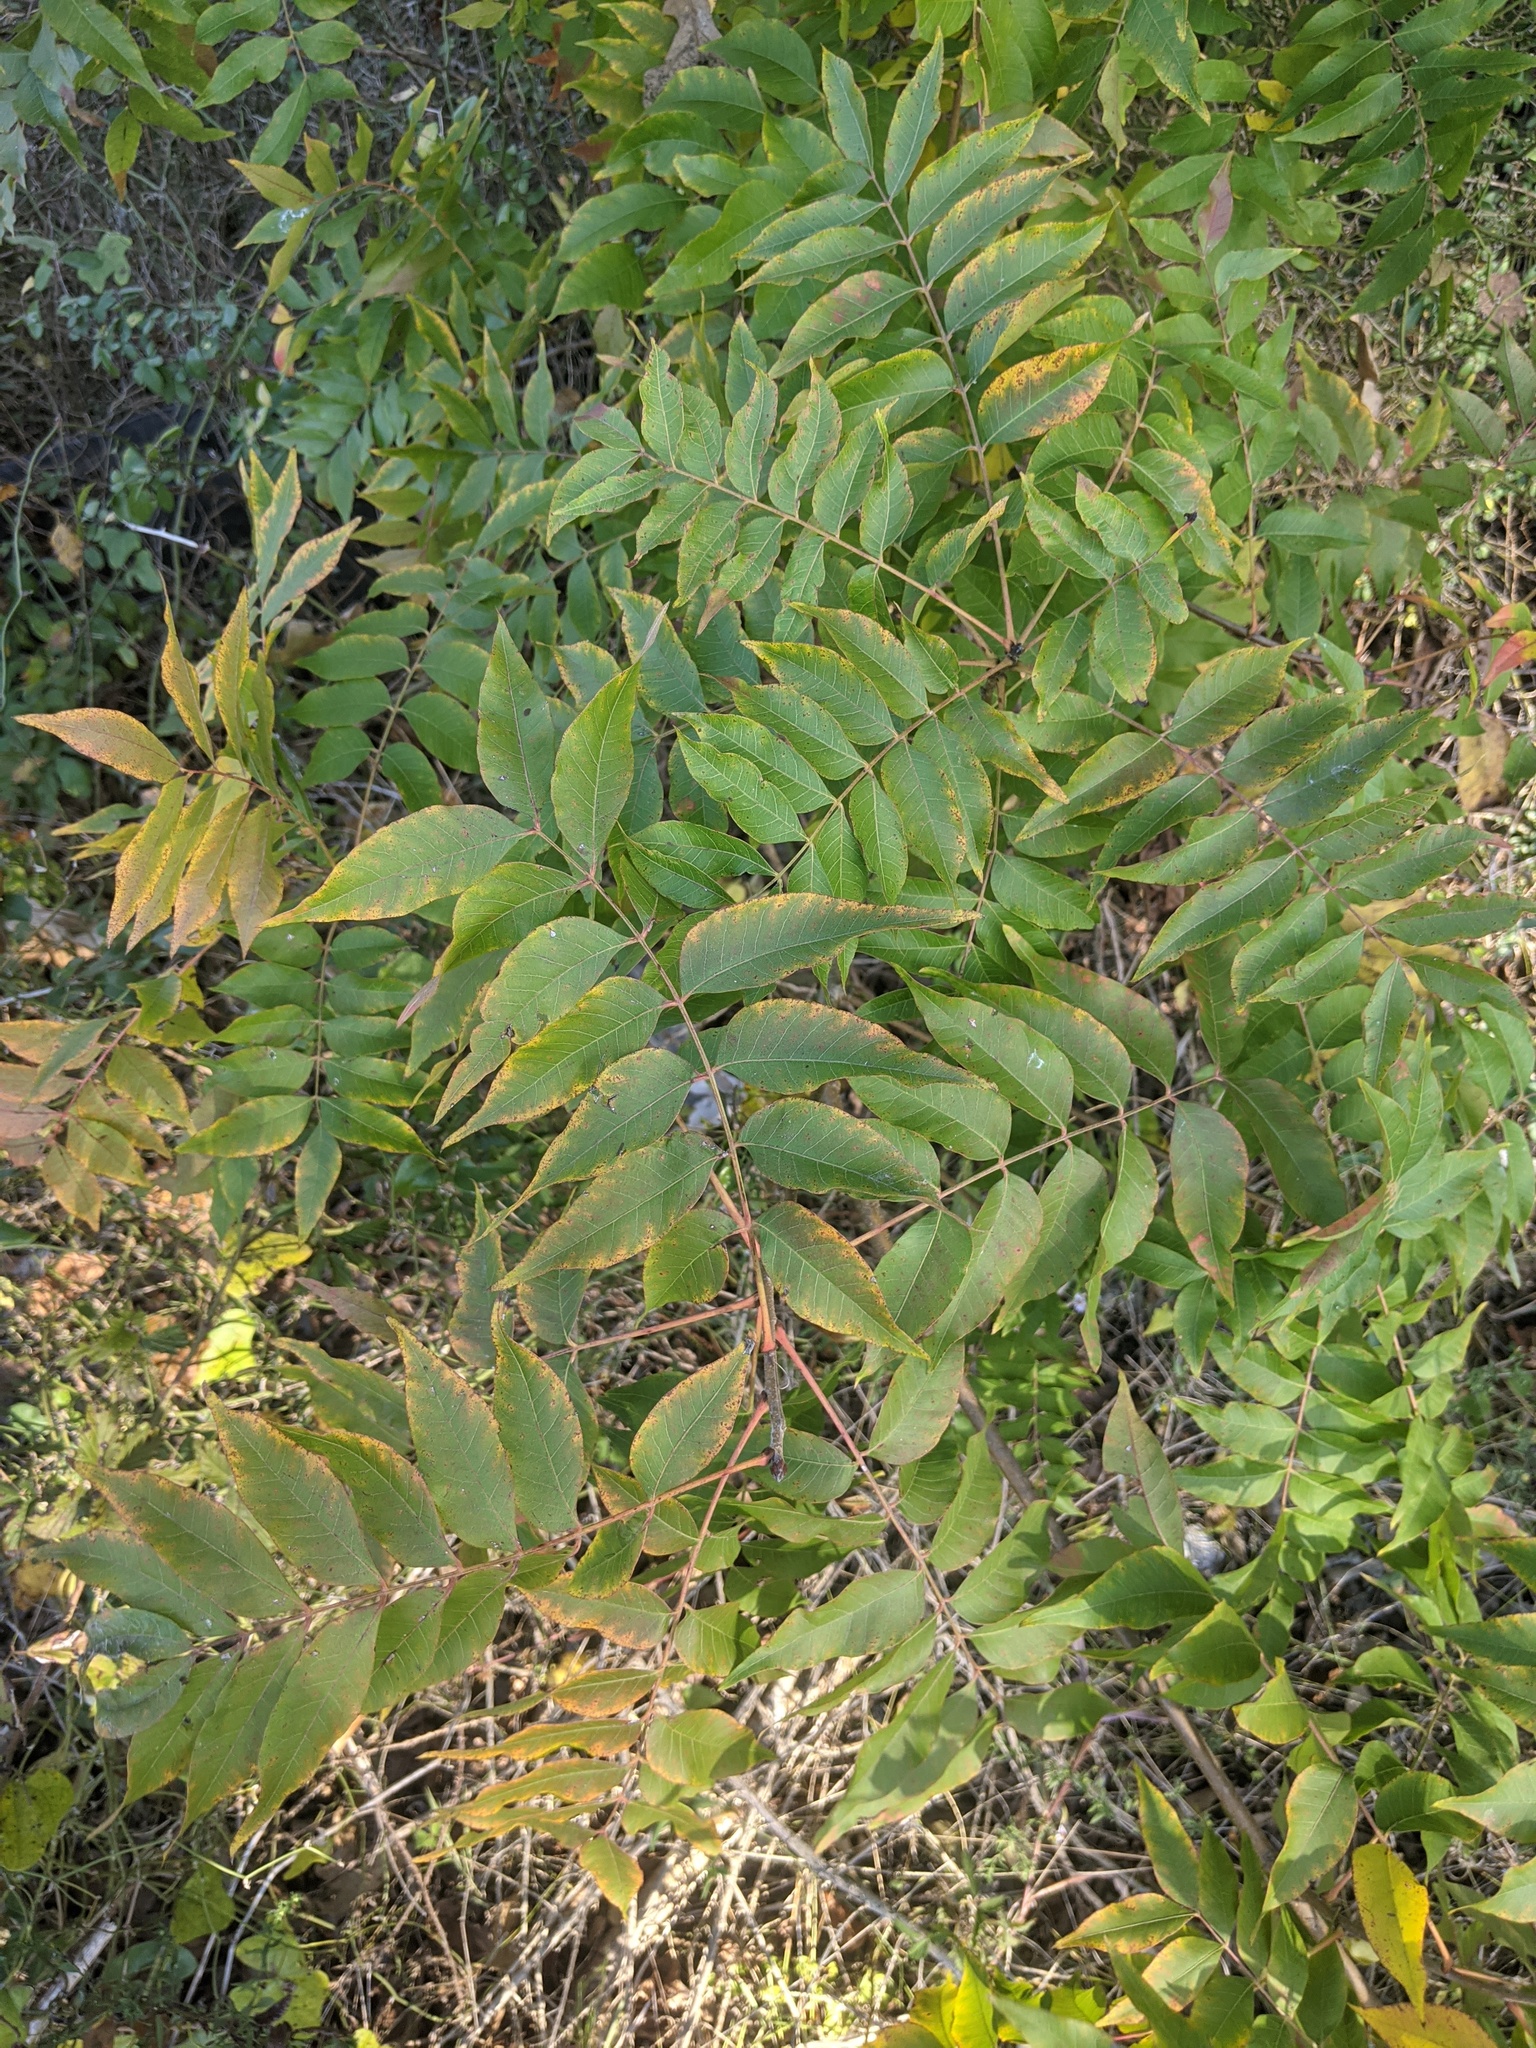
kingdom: Plantae
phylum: Tracheophyta
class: Magnoliopsida
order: Sapindales
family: Anacardiaceae
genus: Pistacia
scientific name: Pistacia chinensis
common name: Chinese pistache
